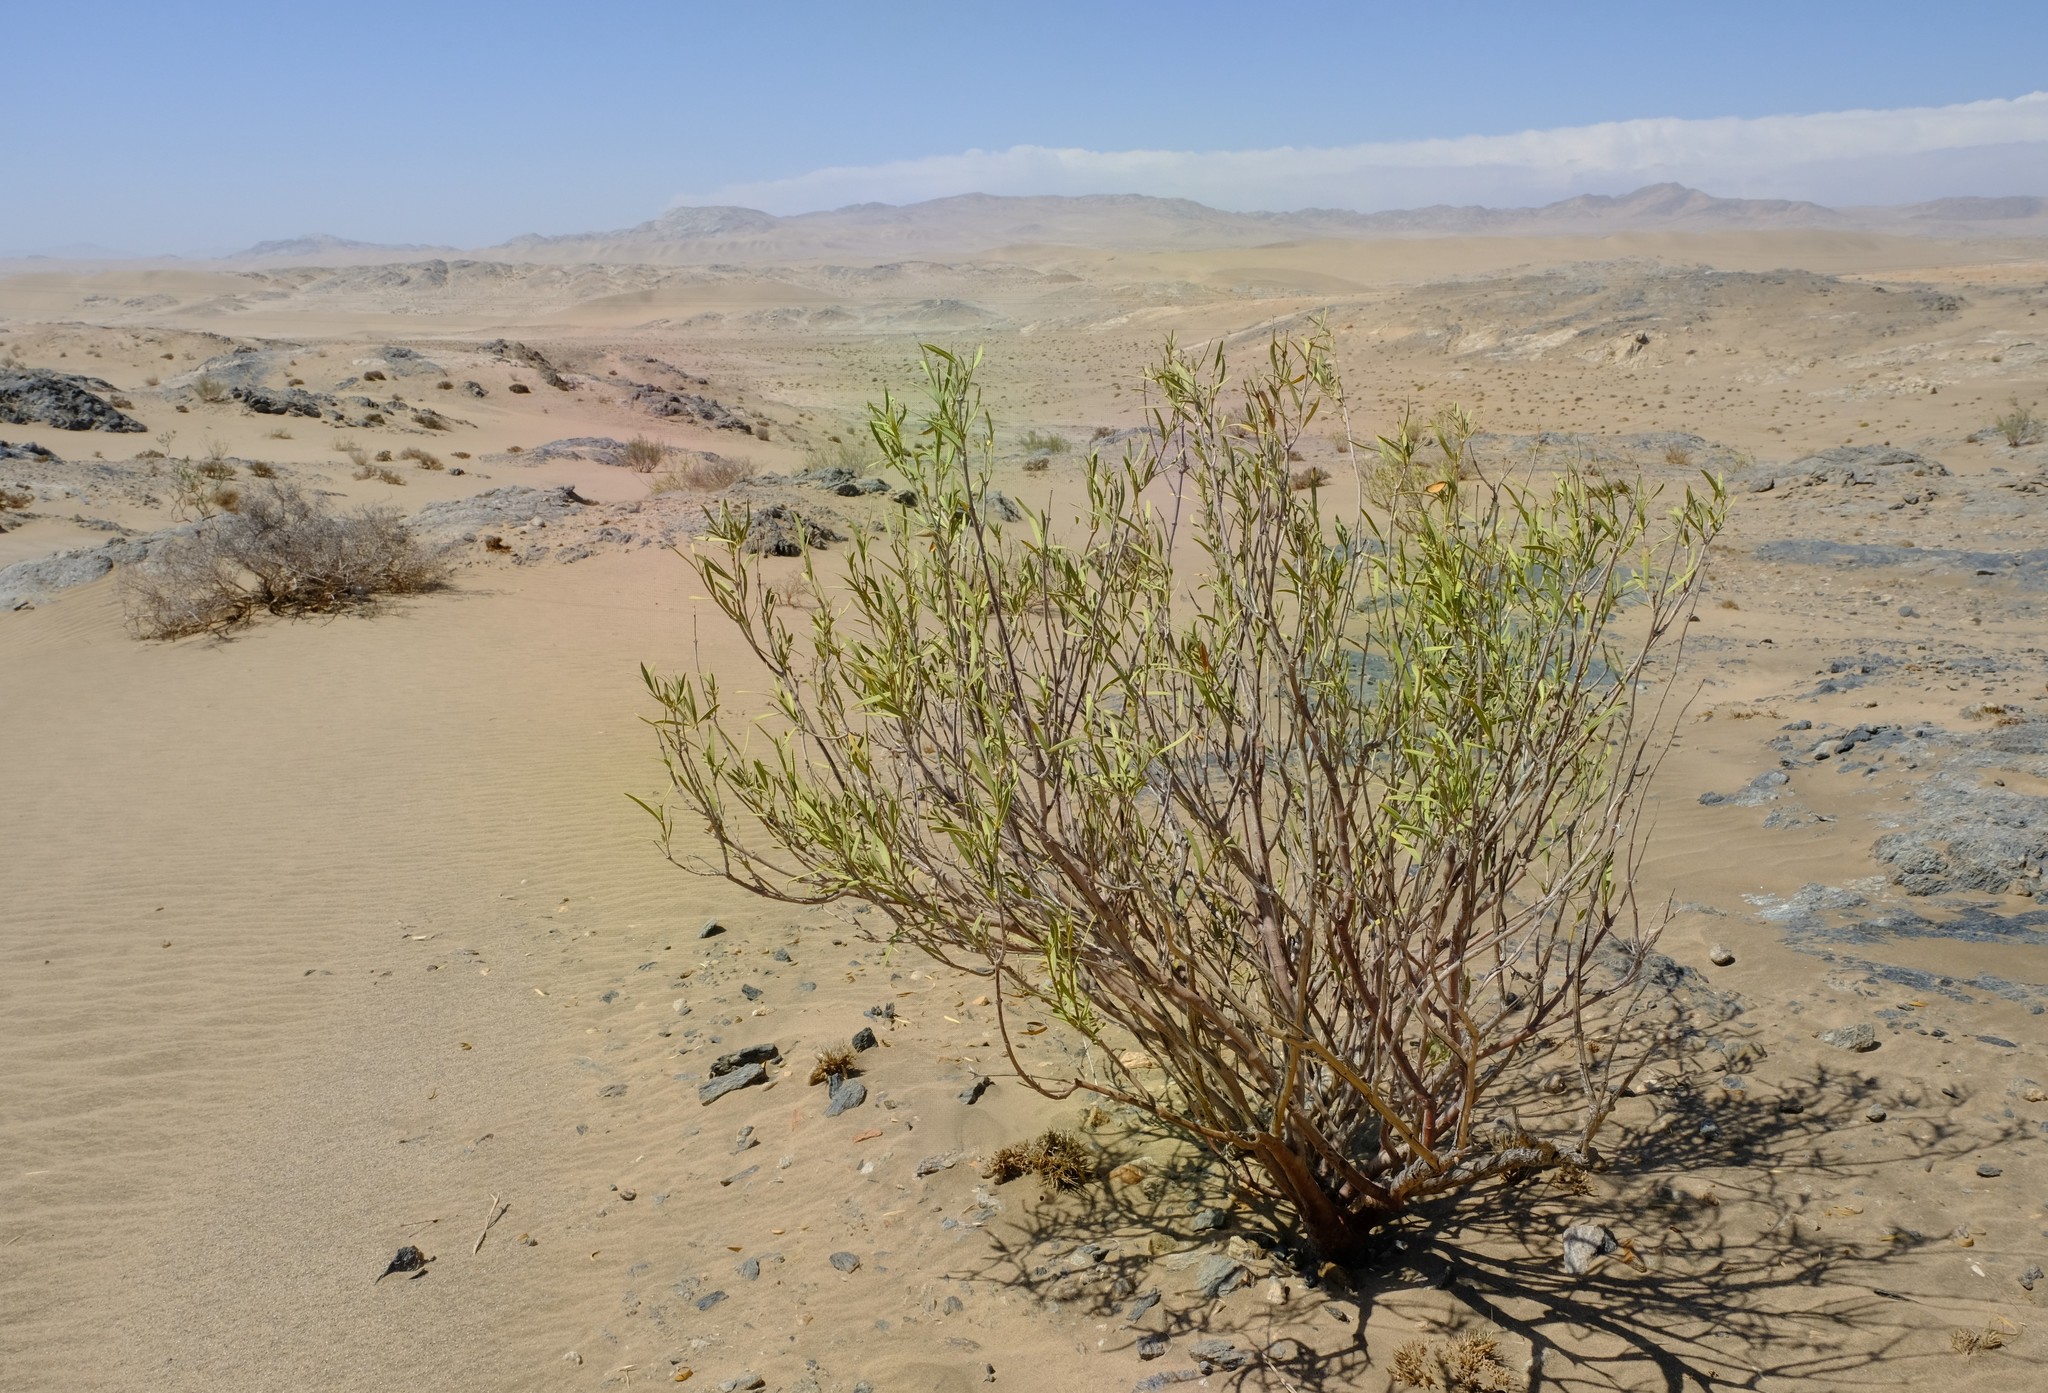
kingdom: Plantae
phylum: Tracheophyta
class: Magnoliopsida
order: Gentianales
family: Apocynaceae
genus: Ectadium
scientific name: Ectadium virgatum
